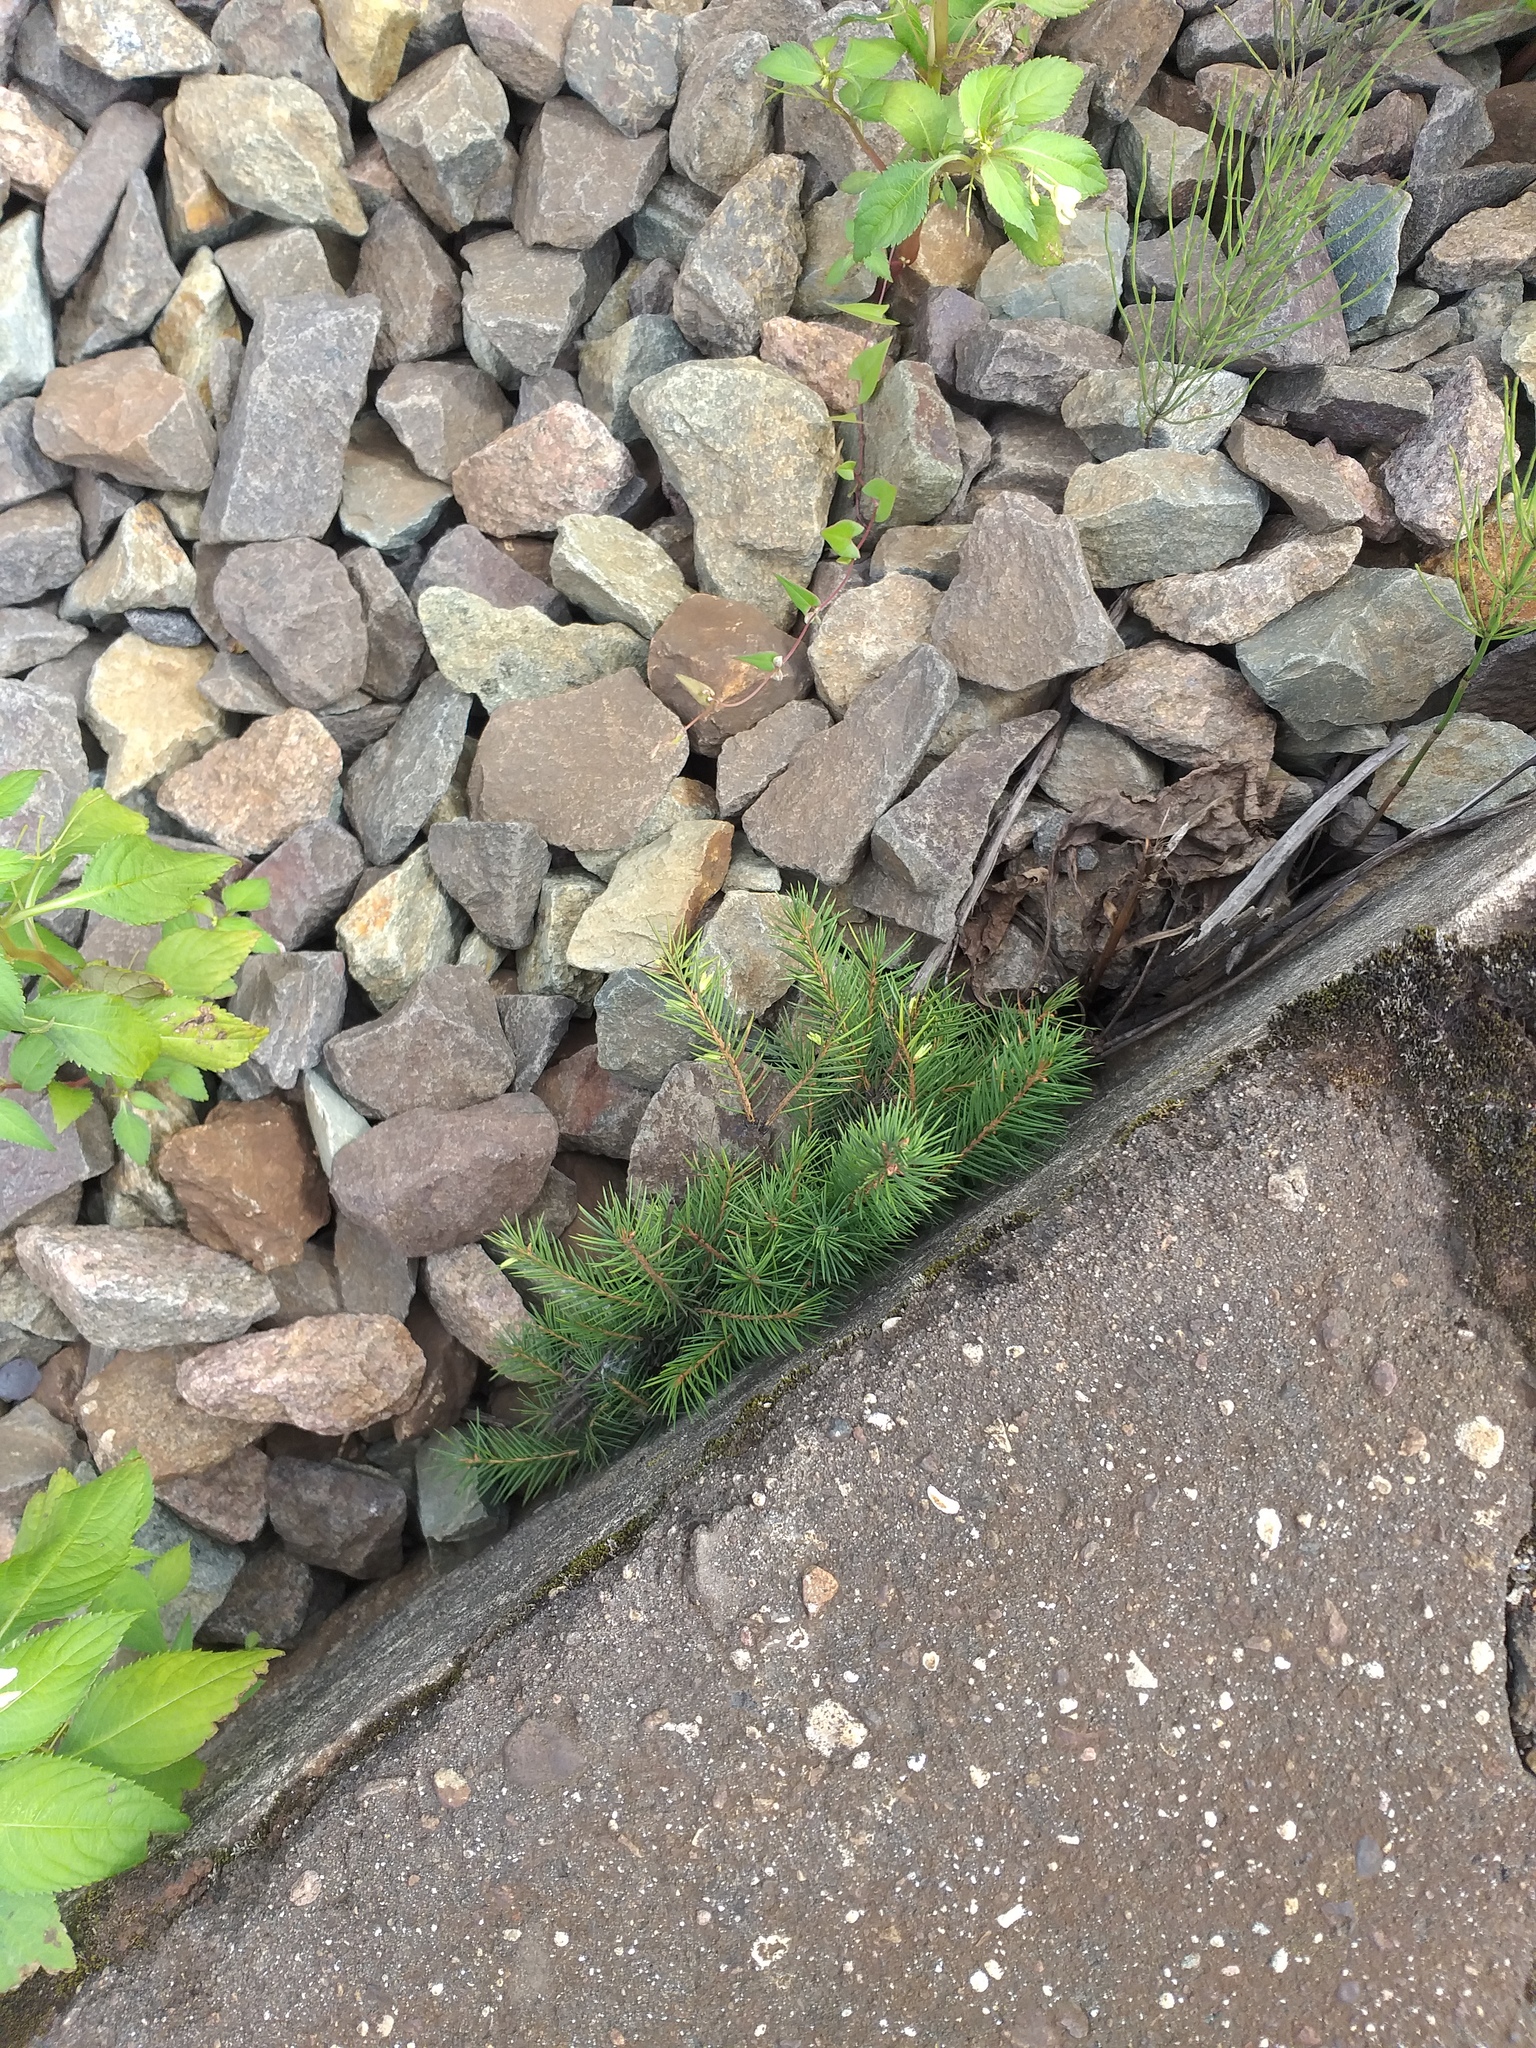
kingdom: Plantae
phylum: Tracheophyta
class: Pinopsida
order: Pinales
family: Pinaceae
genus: Picea
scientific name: Picea abies
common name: Norway spruce
